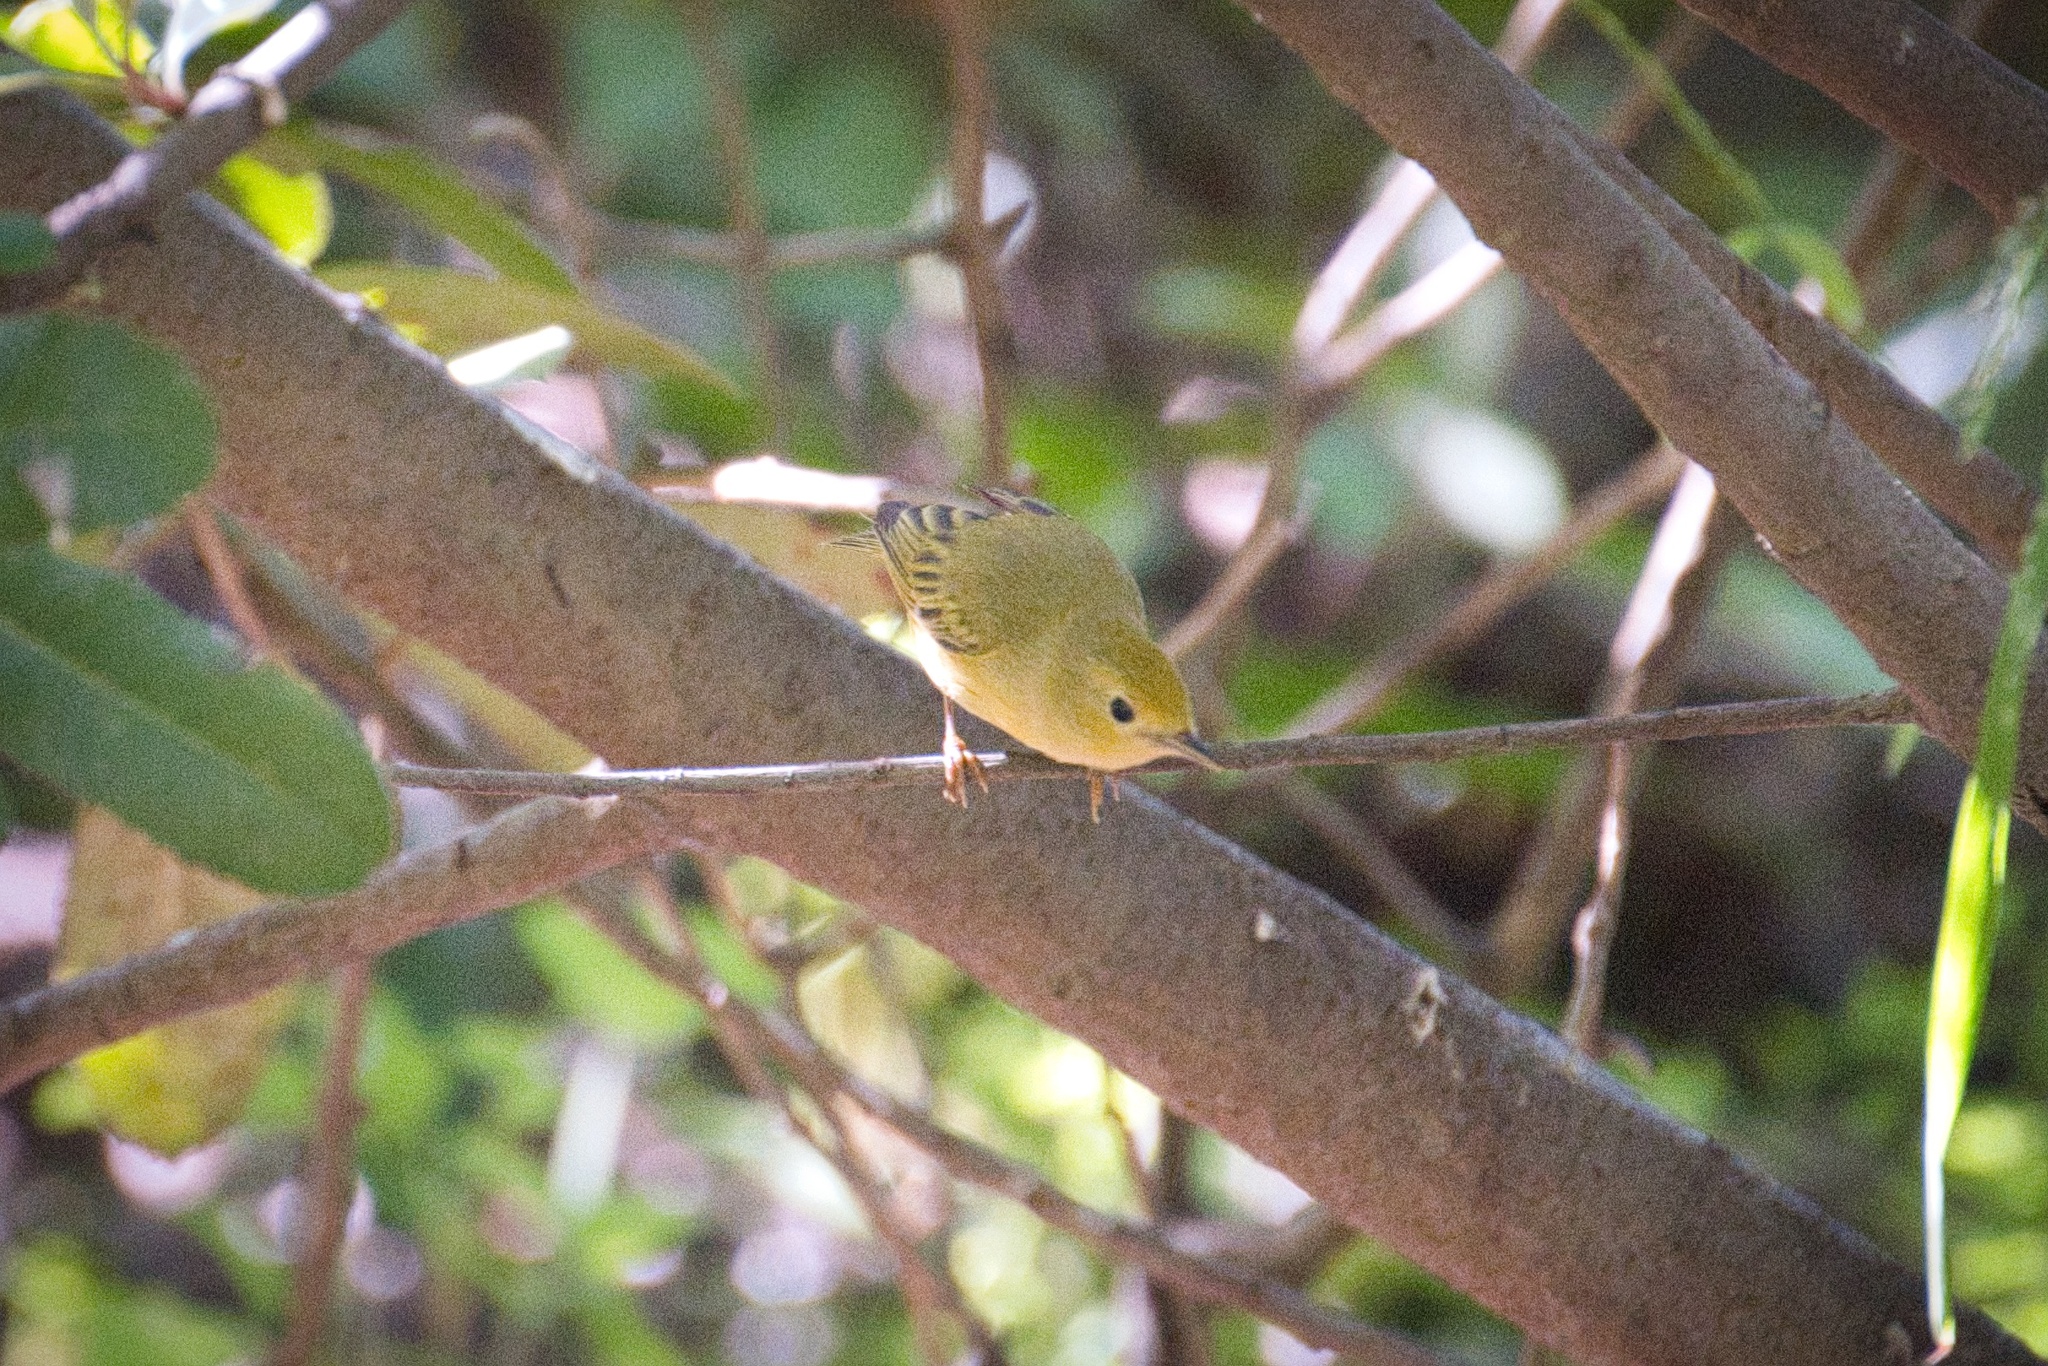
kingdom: Animalia
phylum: Chordata
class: Aves
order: Passeriformes
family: Parulidae
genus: Setophaga
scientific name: Setophaga petechia
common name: Yellow warbler
